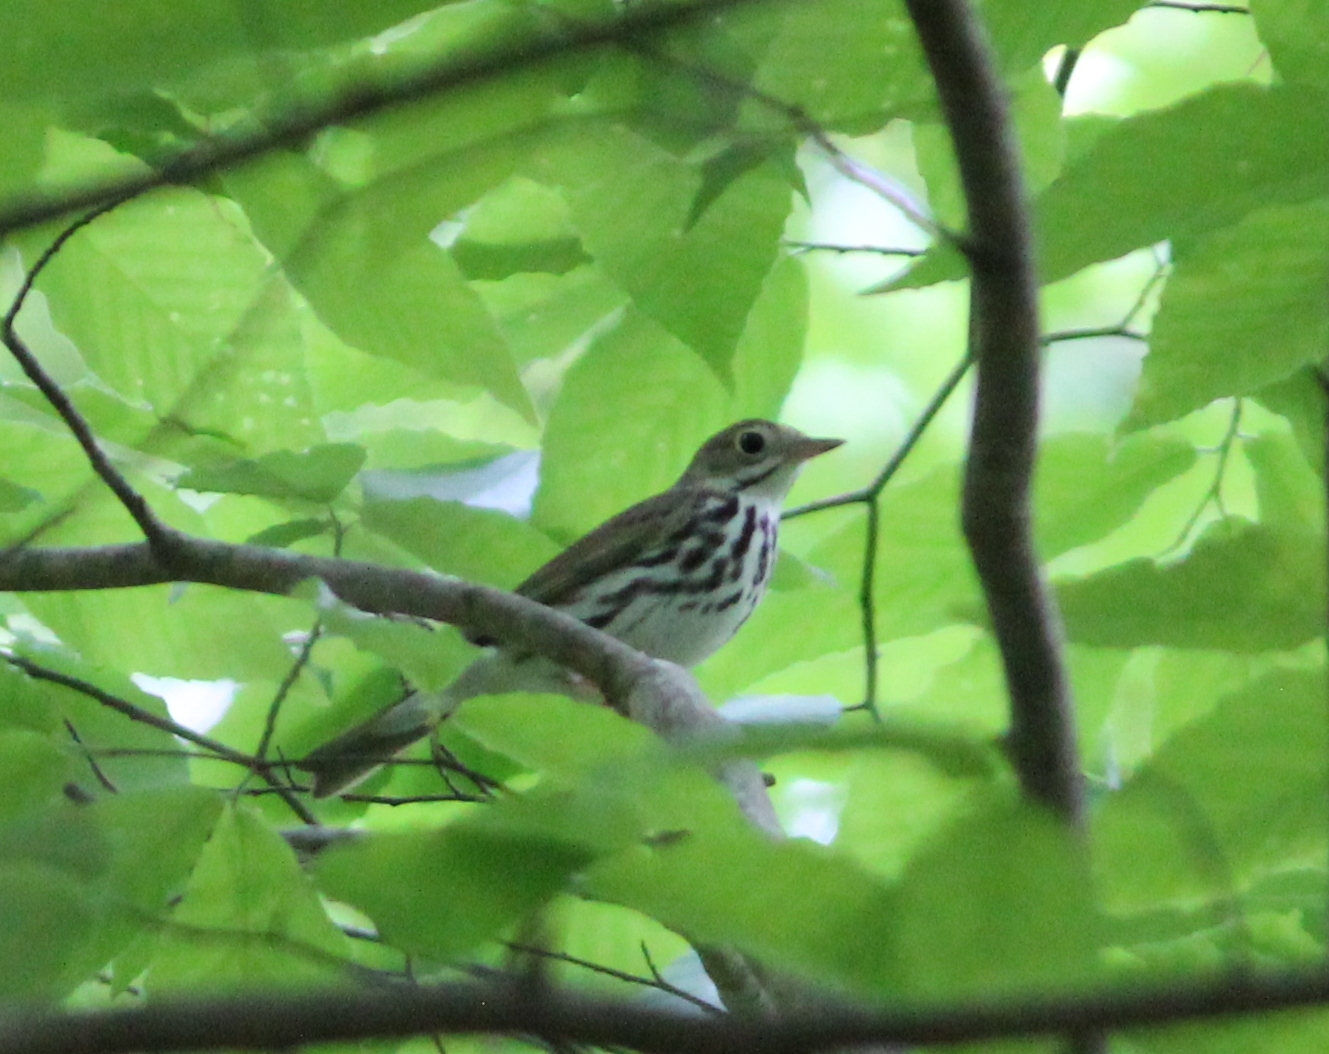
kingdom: Animalia
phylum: Chordata
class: Aves
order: Passeriformes
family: Parulidae
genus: Seiurus
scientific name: Seiurus aurocapilla
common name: Ovenbird
